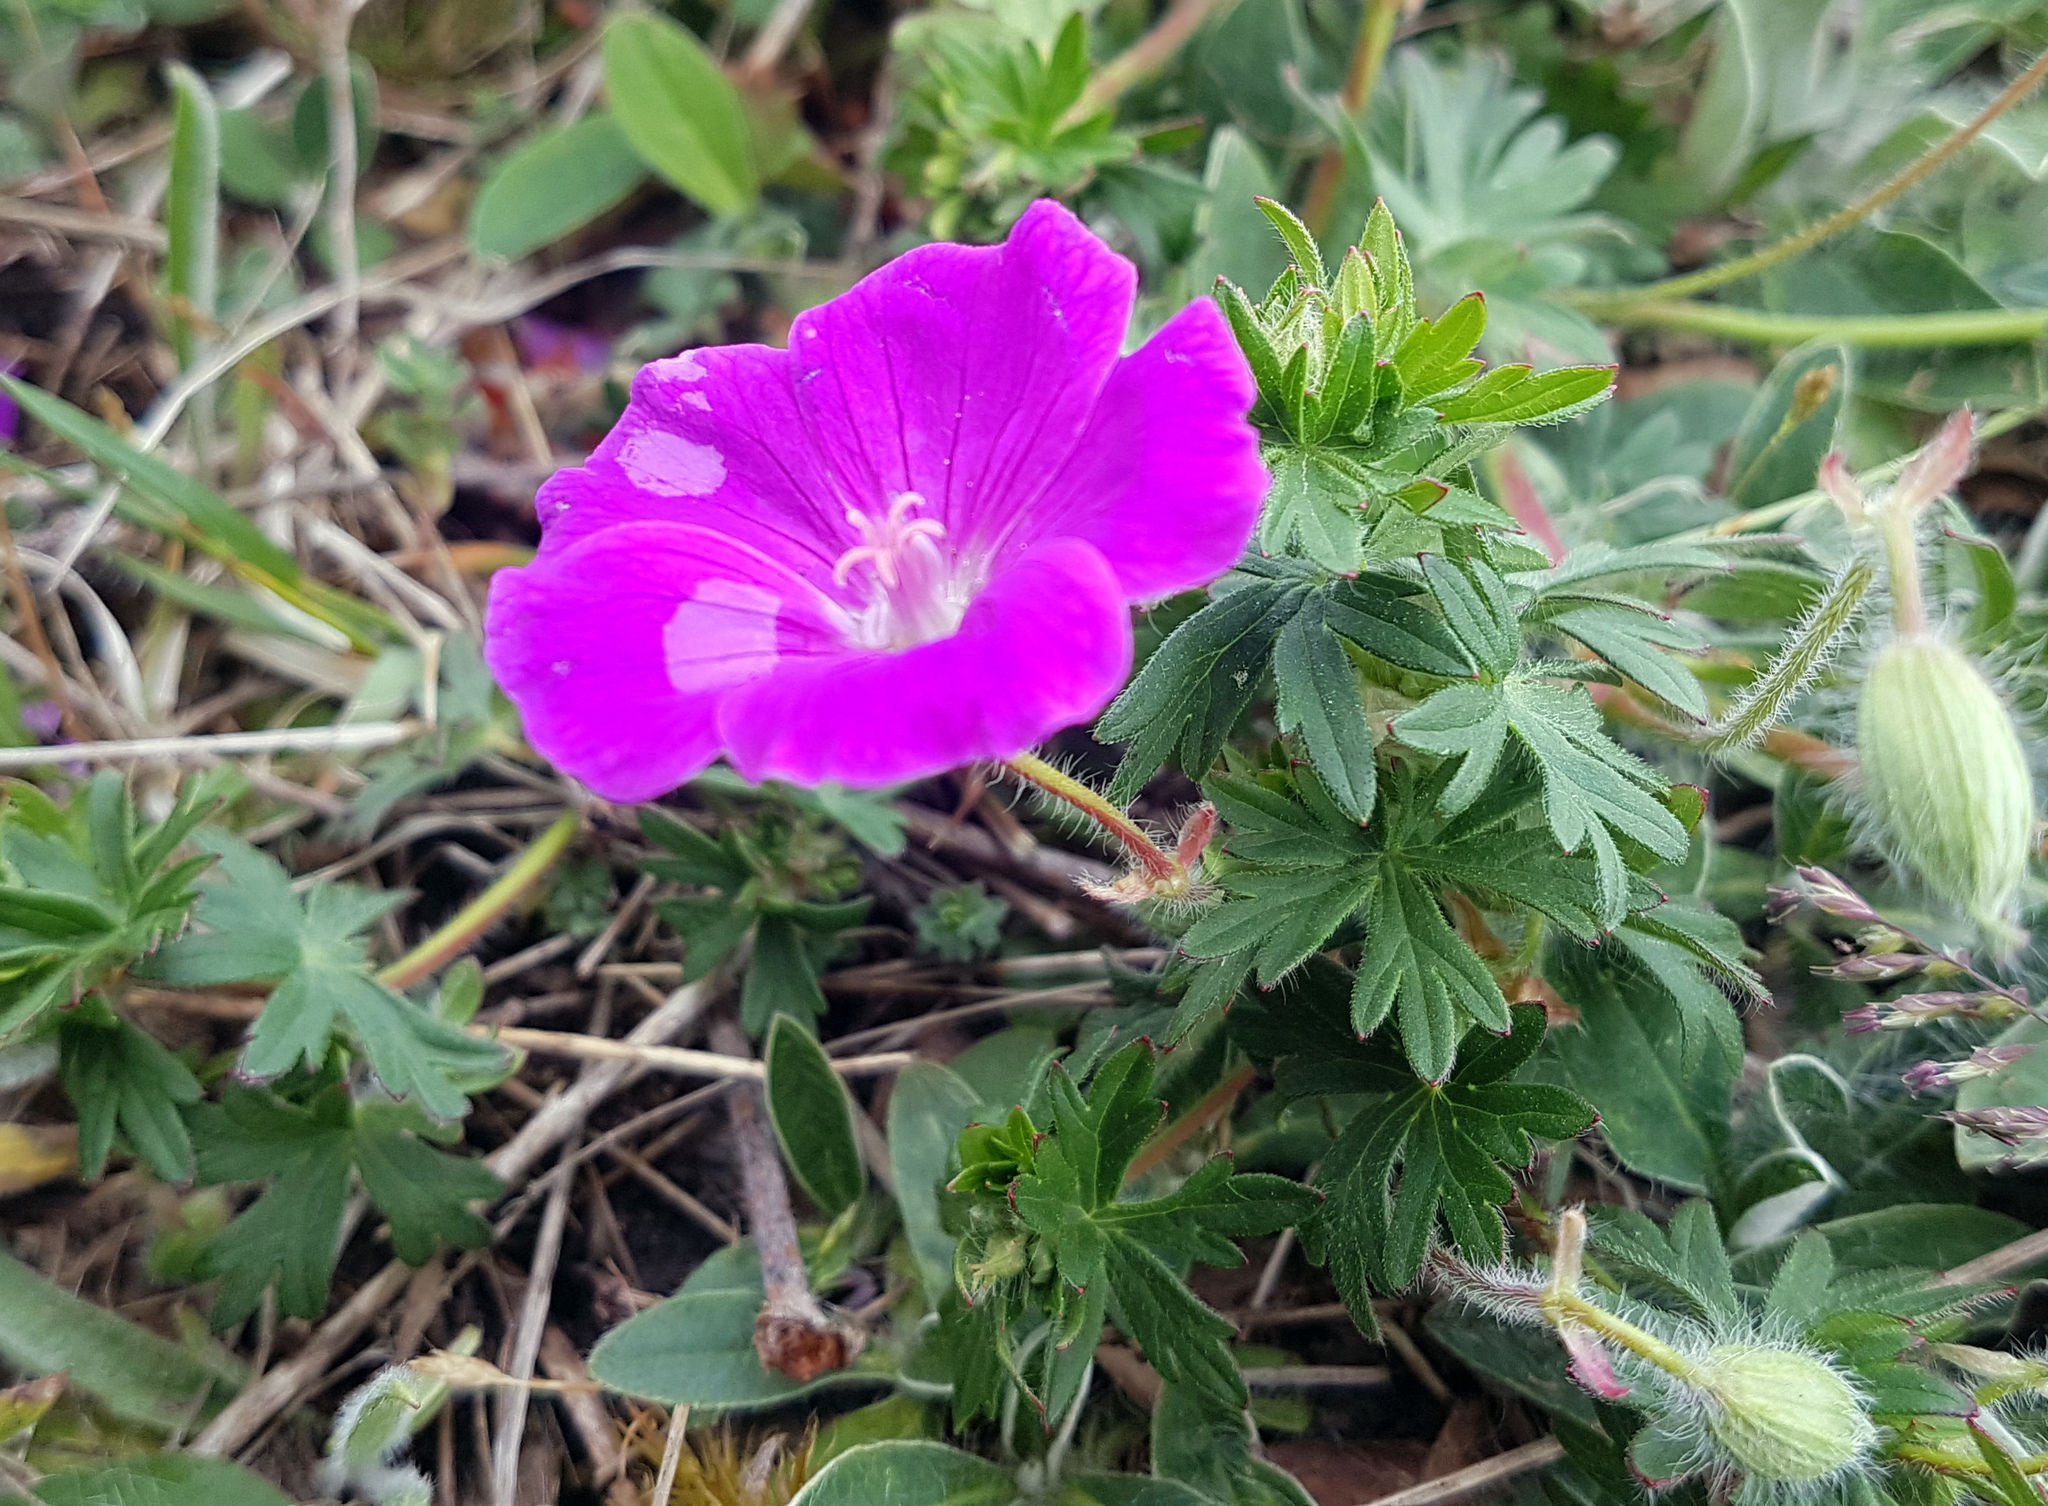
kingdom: Plantae
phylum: Tracheophyta
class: Magnoliopsida
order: Geraniales
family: Geraniaceae
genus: Geranium
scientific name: Geranium sanguineum
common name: Bloody crane's-bill
